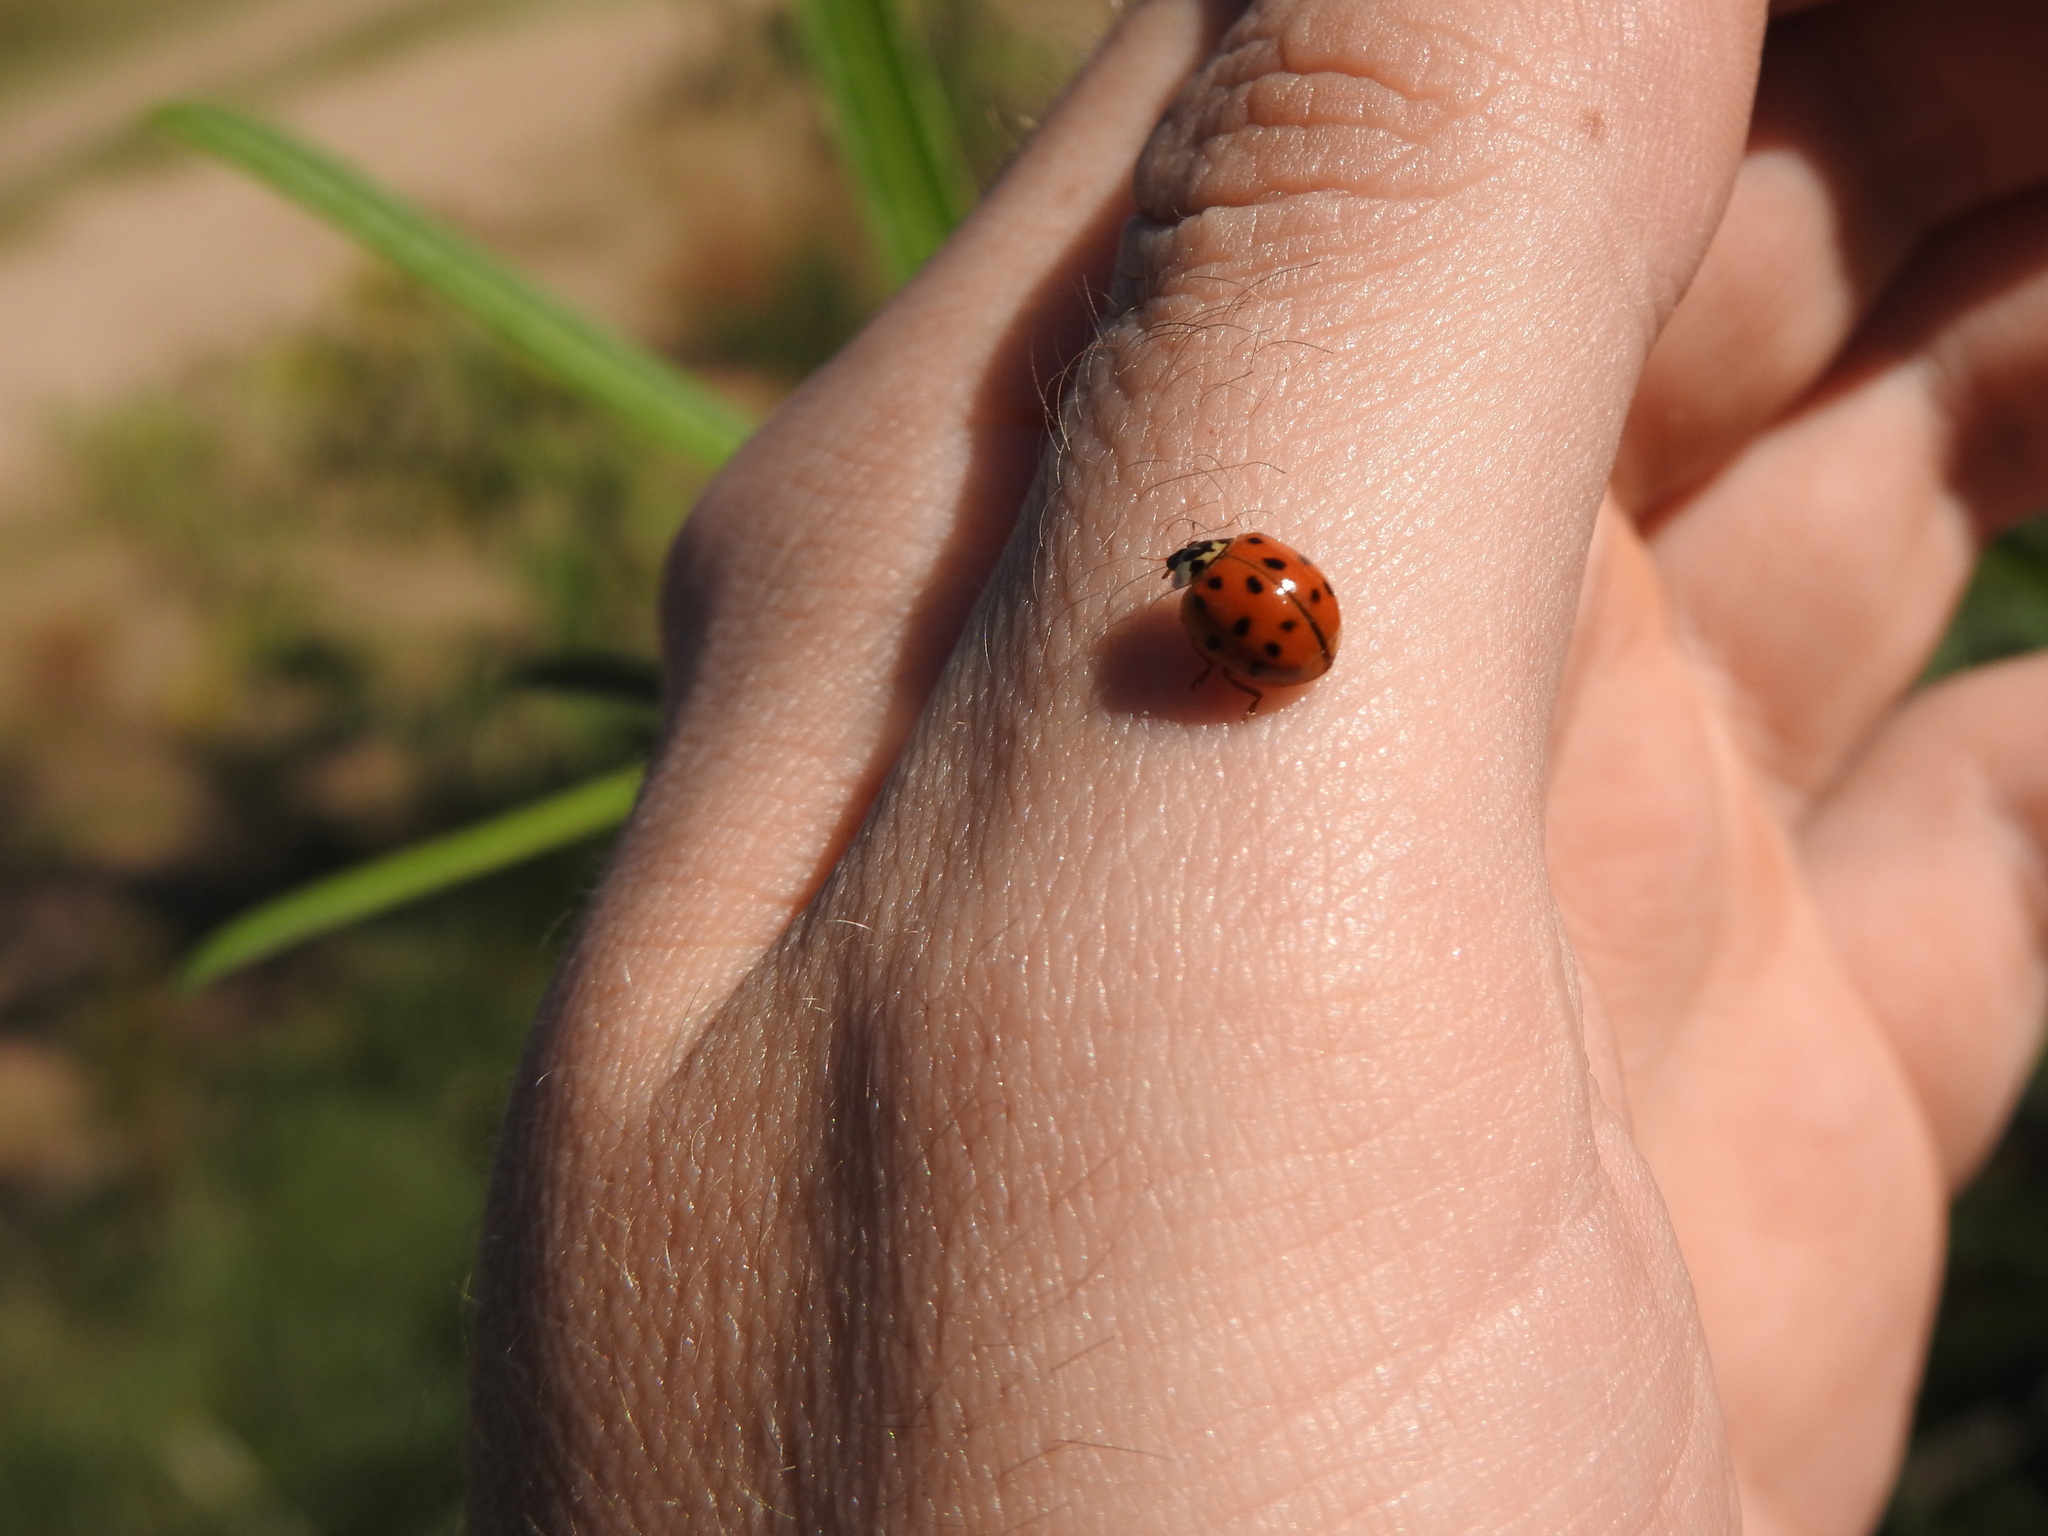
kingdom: Animalia
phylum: Arthropoda
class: Insecta
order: Coleoptera
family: Coccinellidae
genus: Harmonia
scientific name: Harmonia axyridis
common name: Harlequin ladybird
